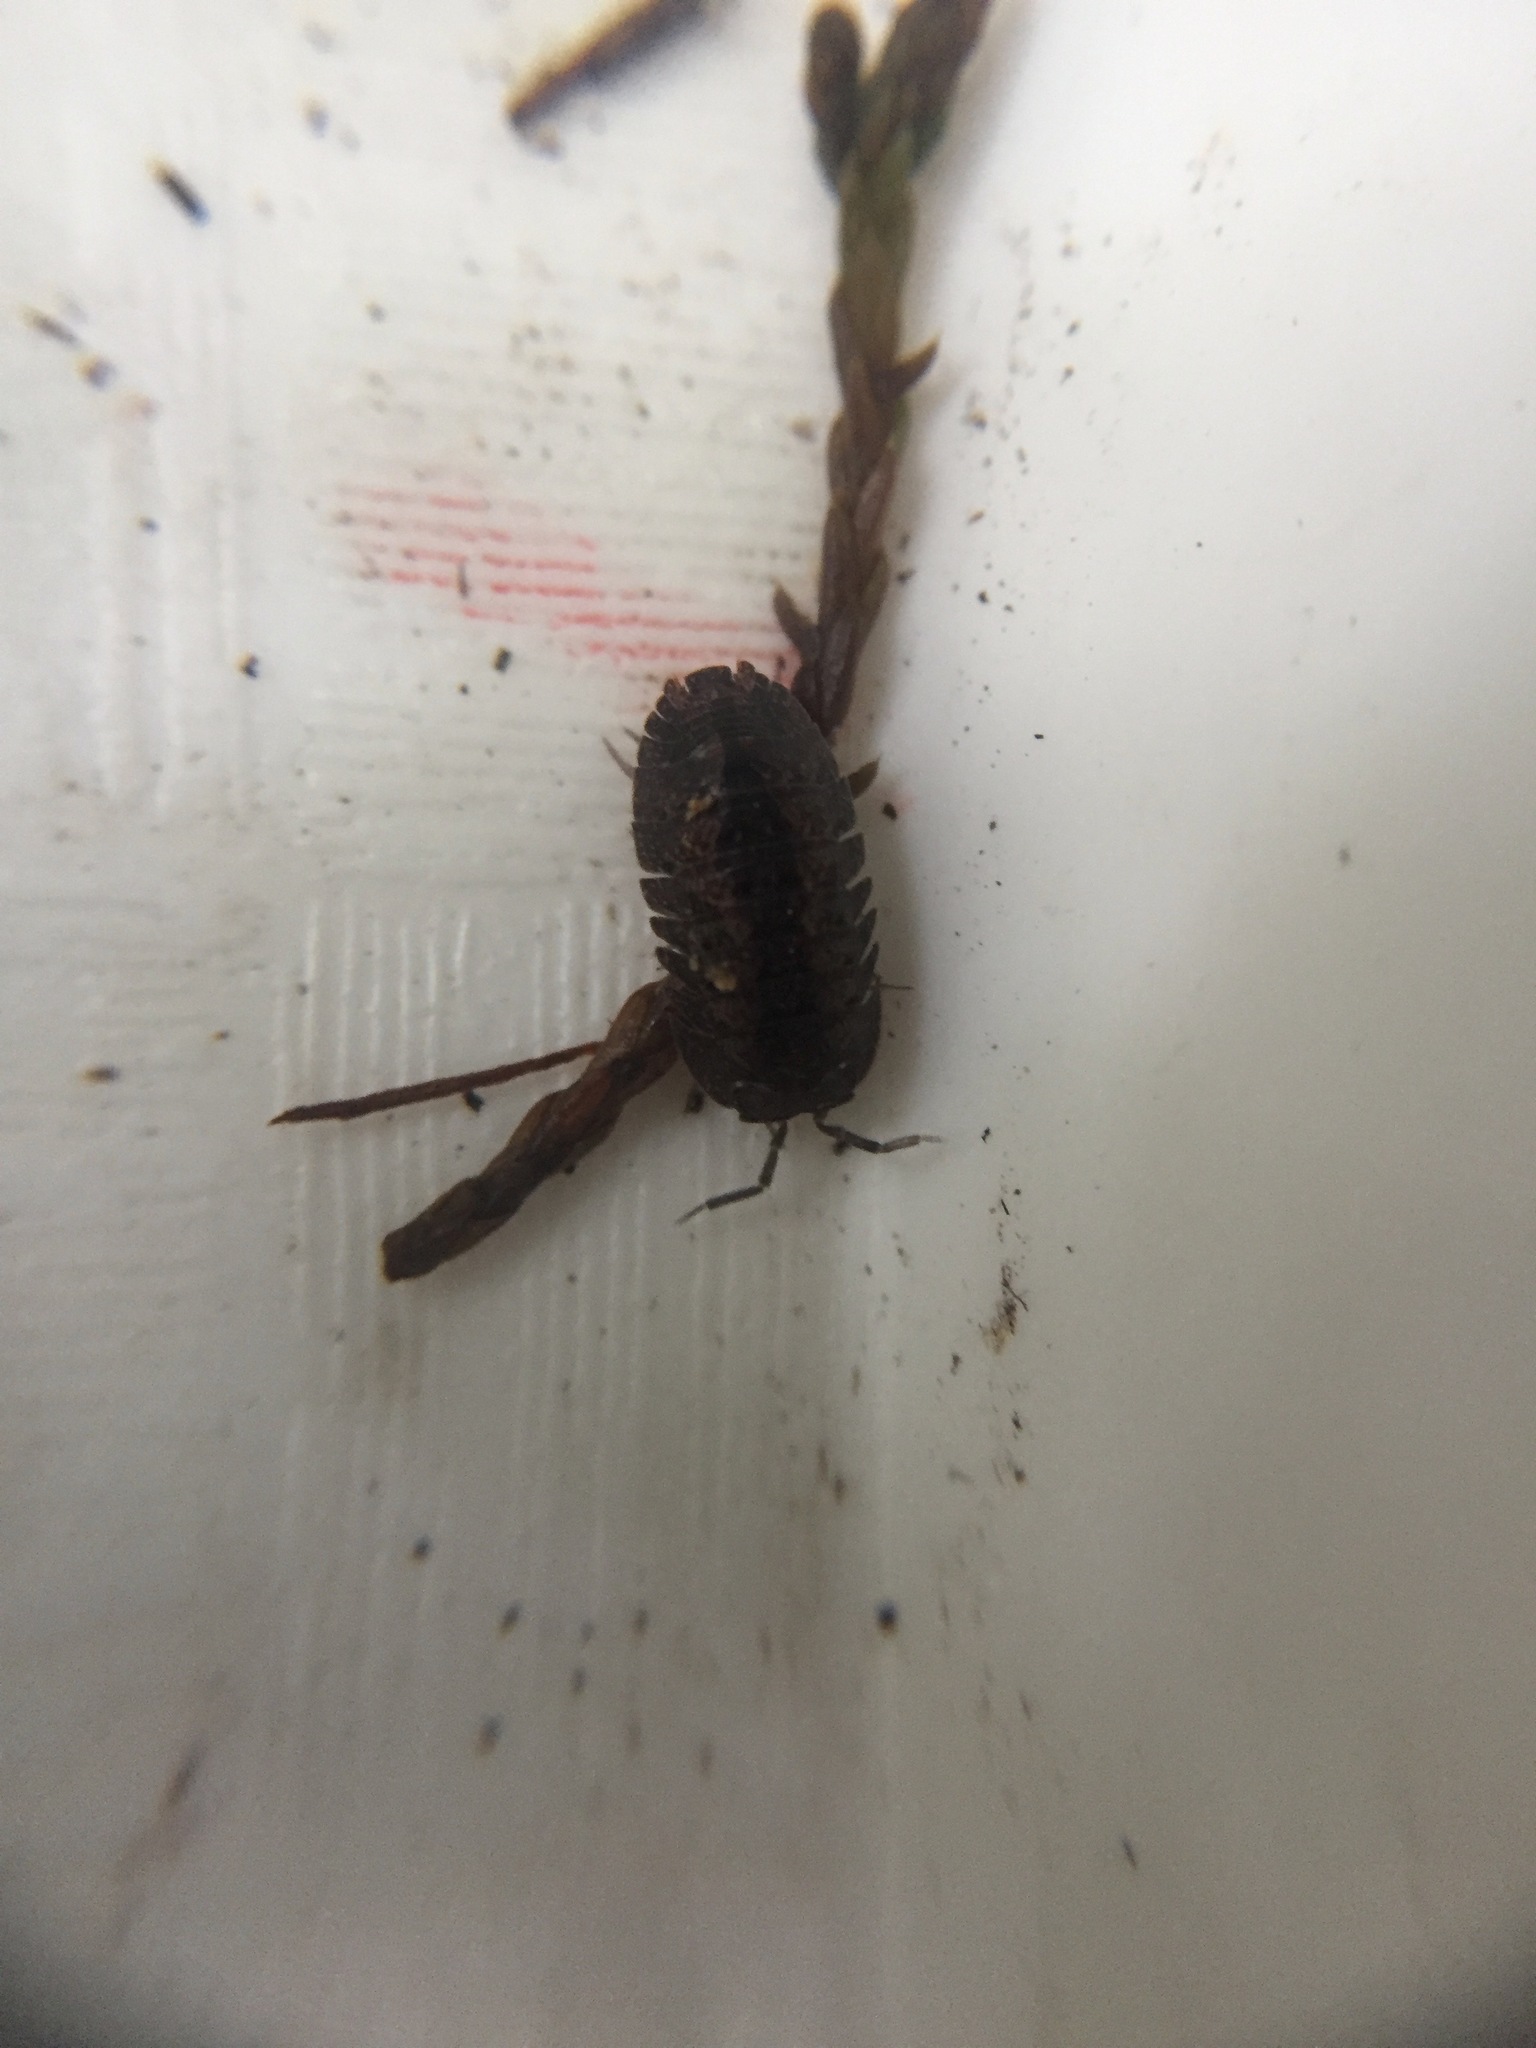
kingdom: Animalia
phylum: Arthropoda
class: Malacostraca
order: Isopoda
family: Armadillidae
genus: Cubaris
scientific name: Cubaris tarangensis
